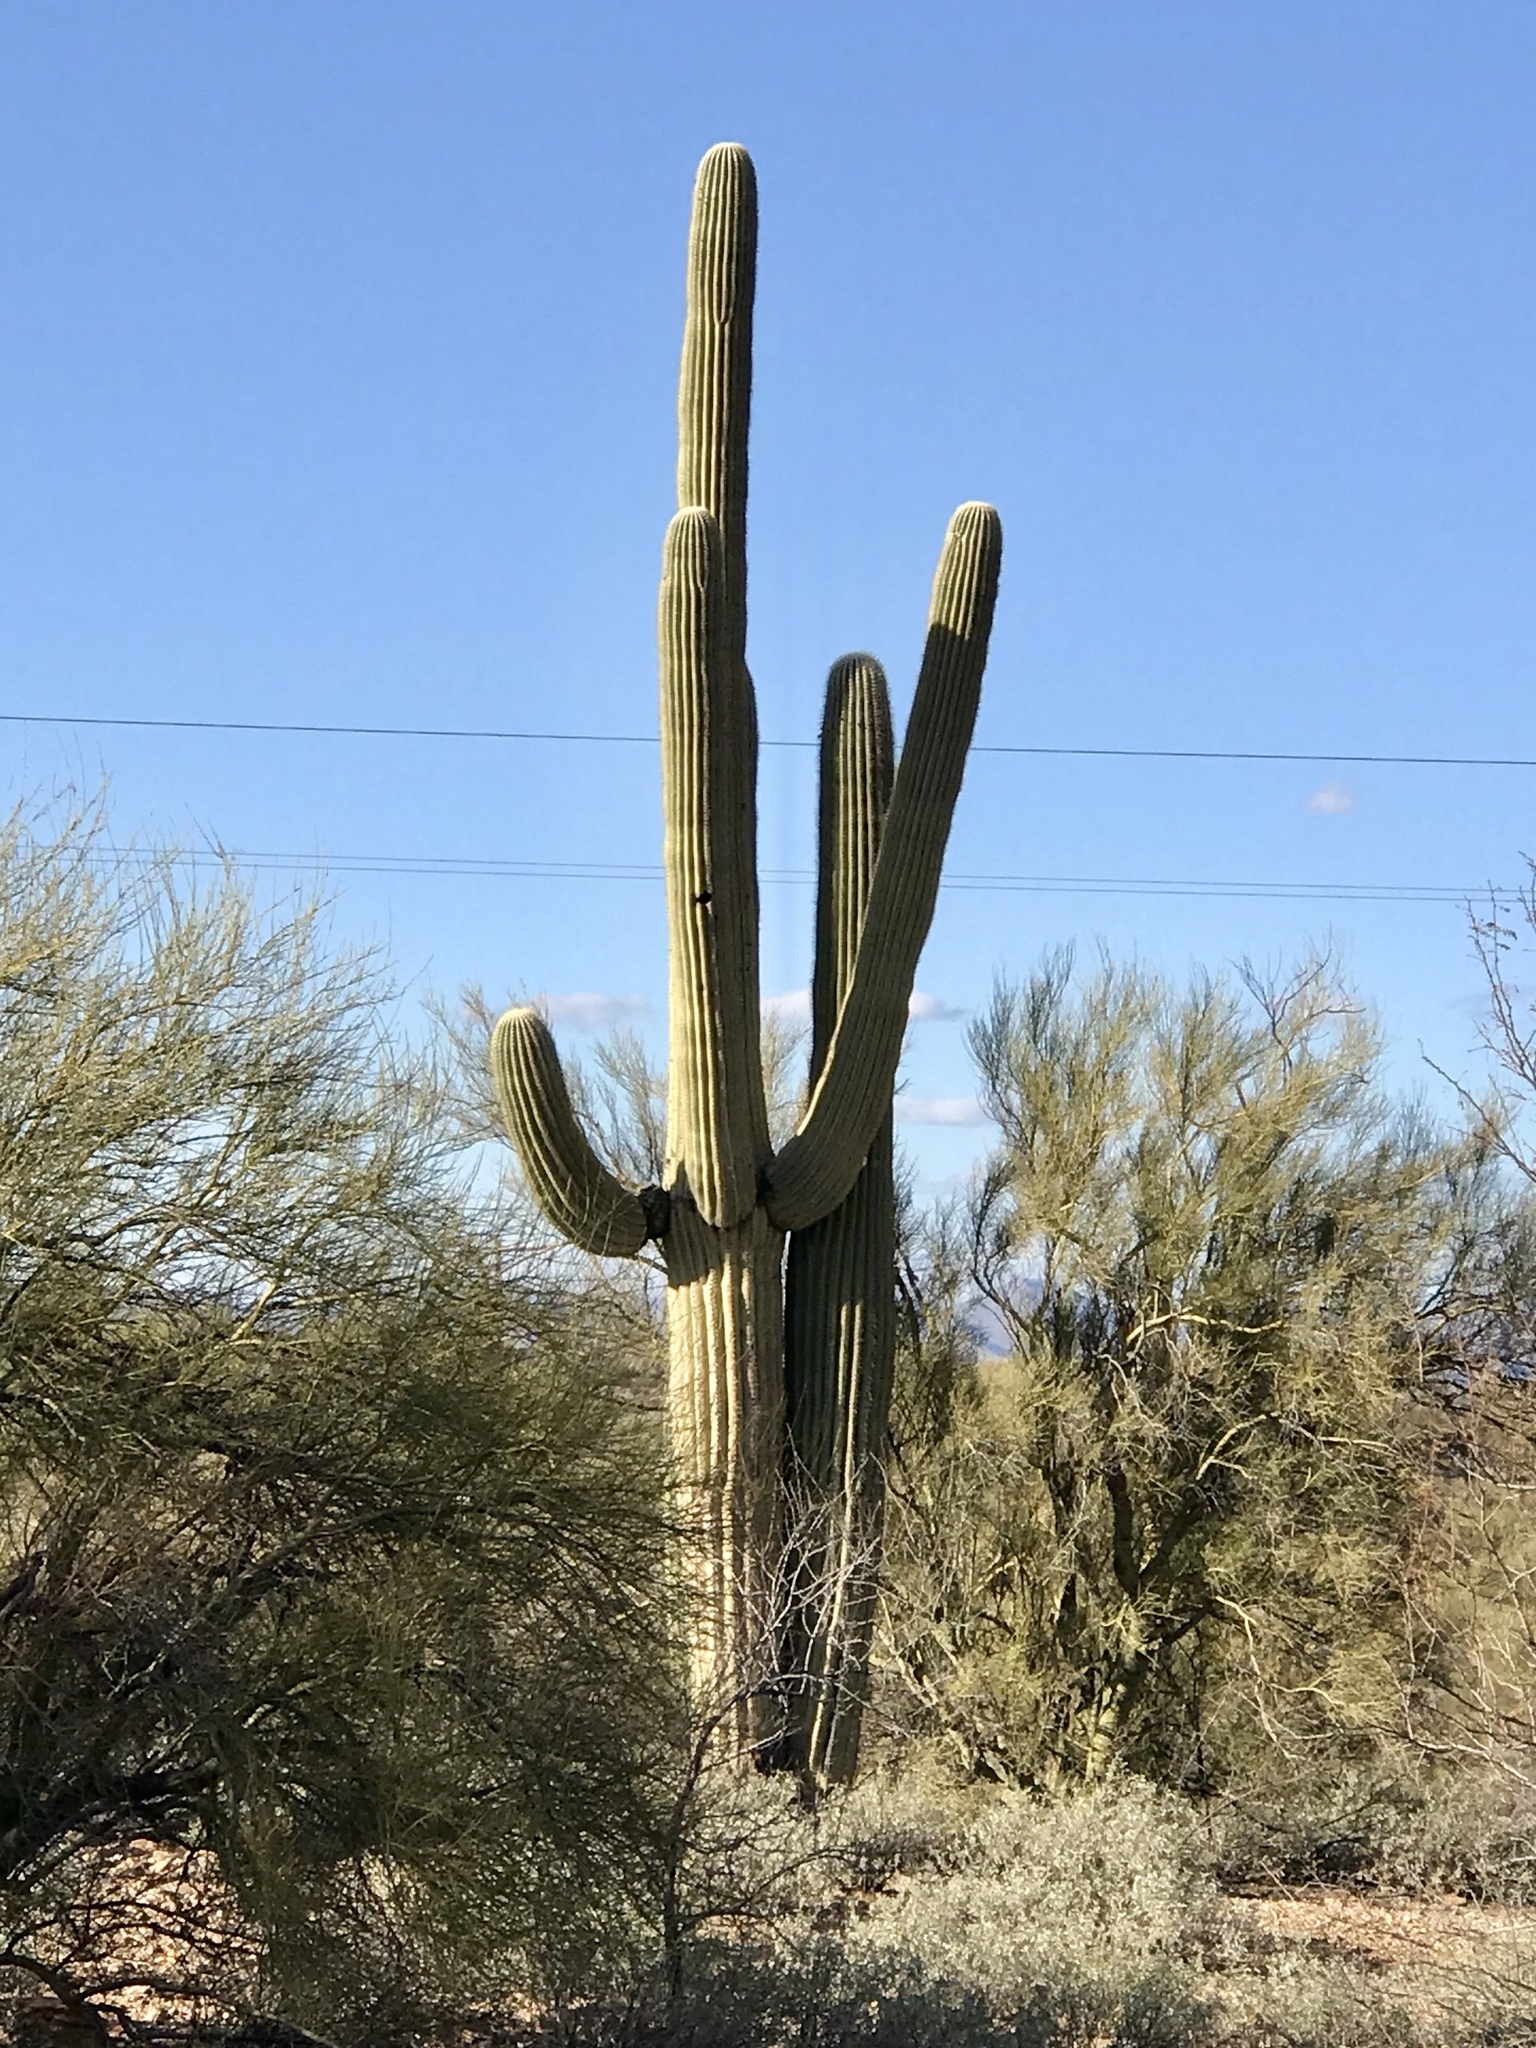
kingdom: Plantae
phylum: Tracheophyta
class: Magnoliopsida
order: Caryophyllales
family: Cactaceae
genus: Carnegiea
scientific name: Carnegiea gigantea
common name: Saguaro
